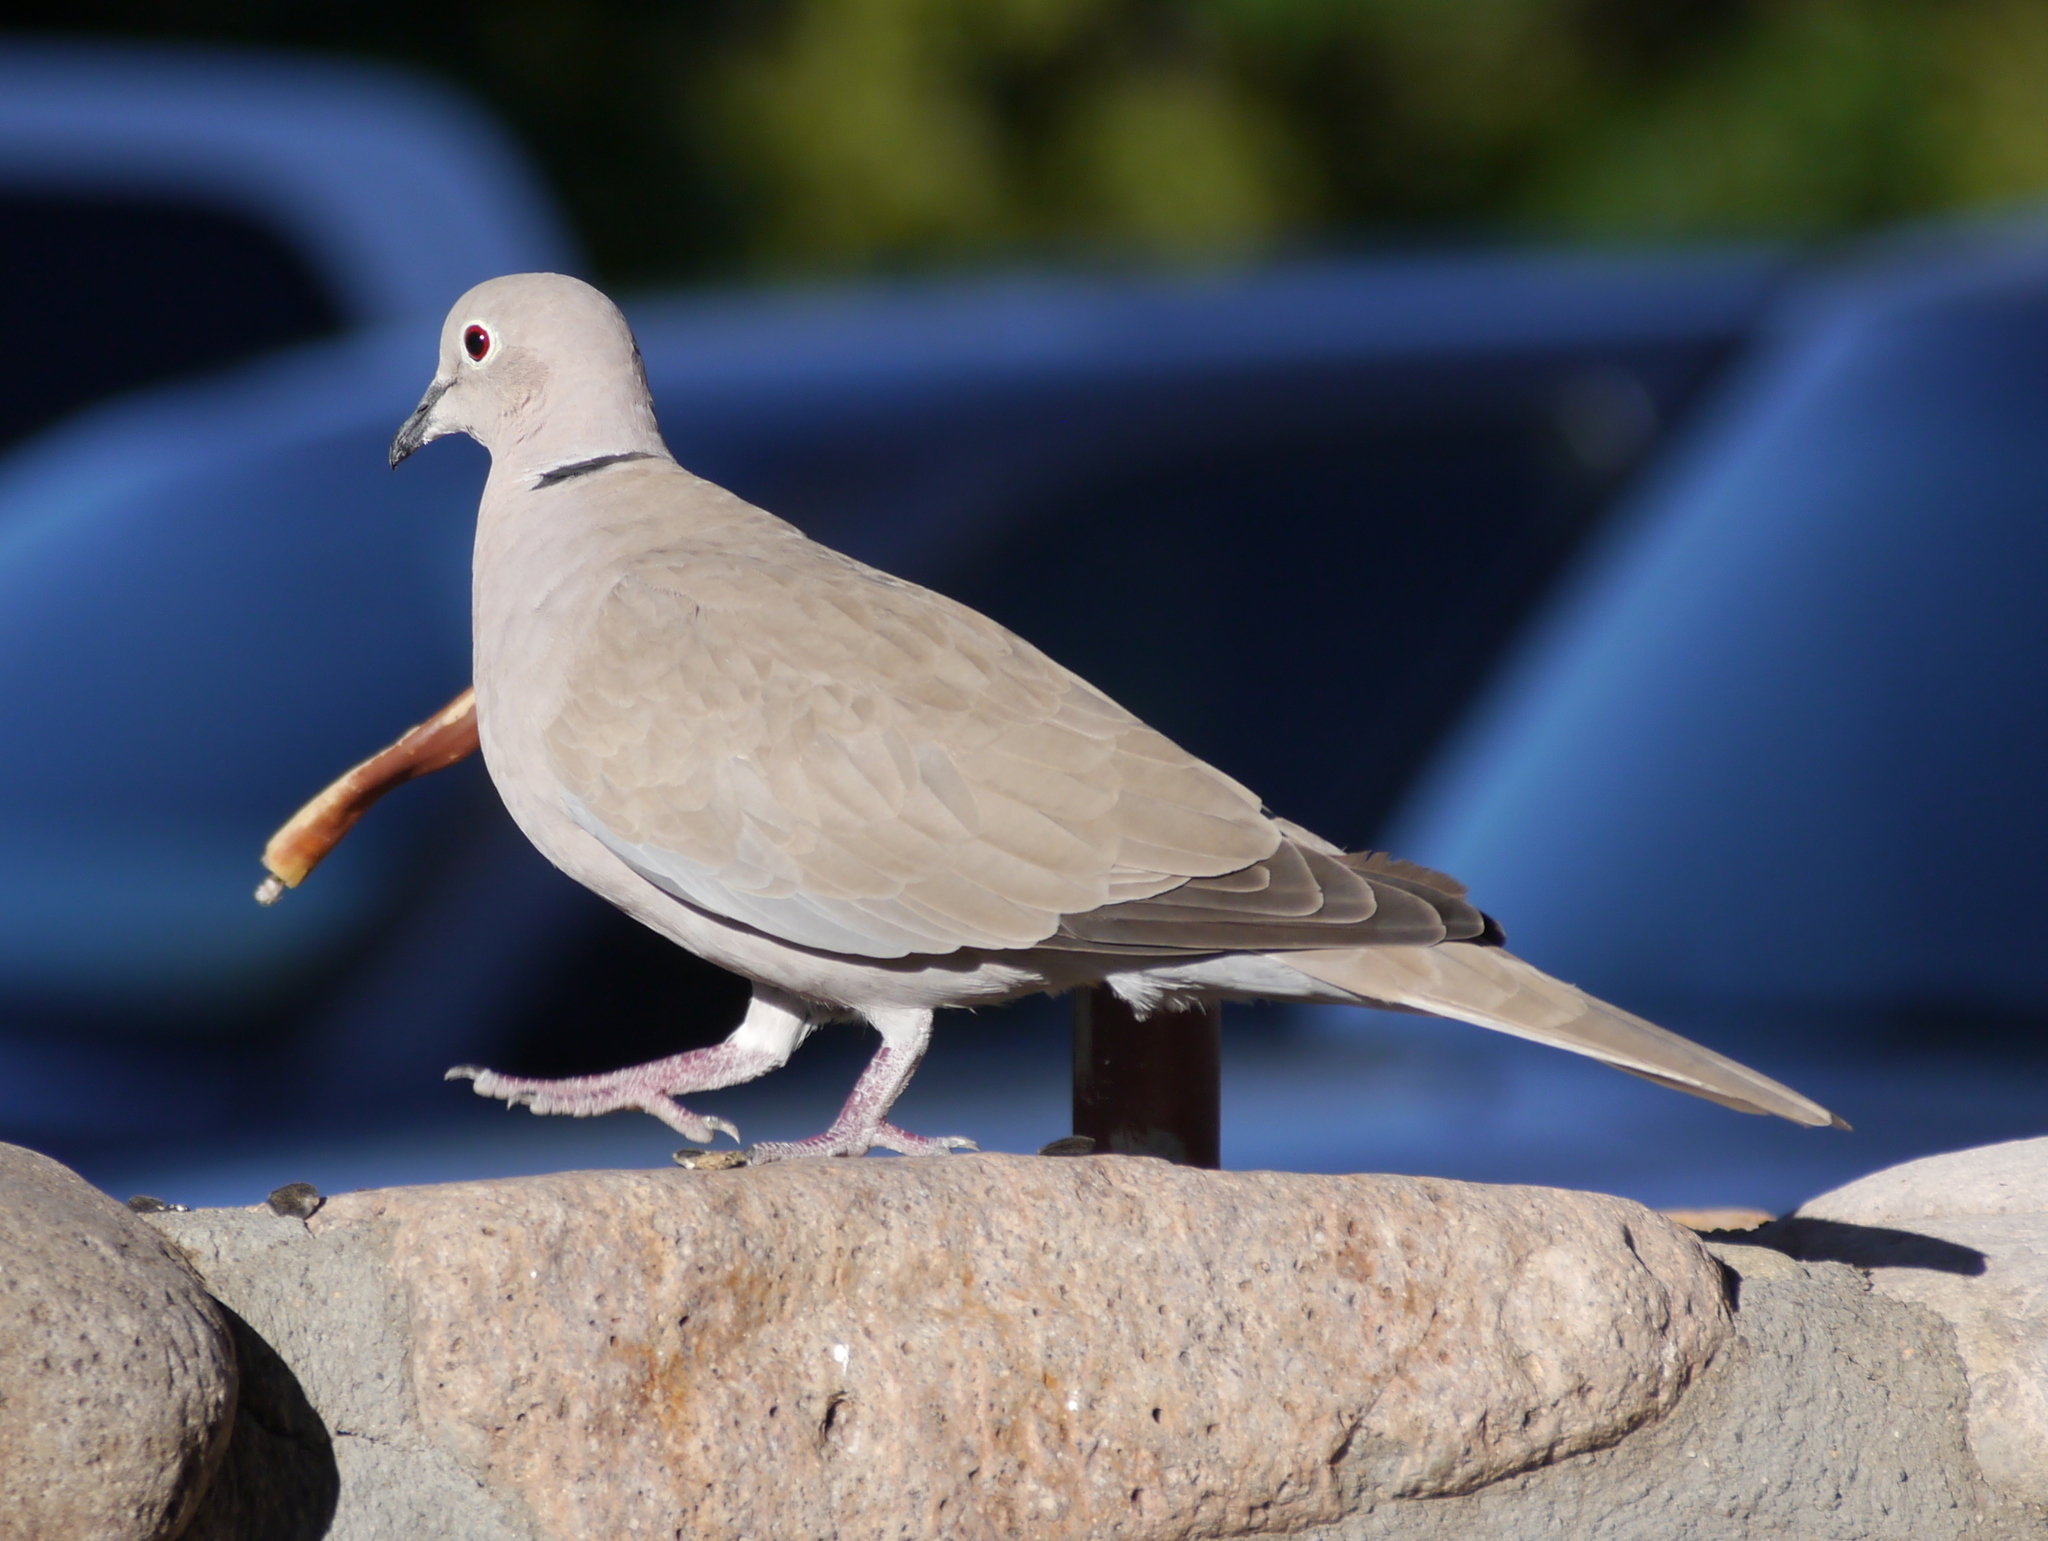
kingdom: Animalia
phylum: Chordata
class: Aves
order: Columbiformes
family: Columbidae
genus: Streptopelia
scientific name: Streptopelia decaocto
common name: Eurasian collared dove
